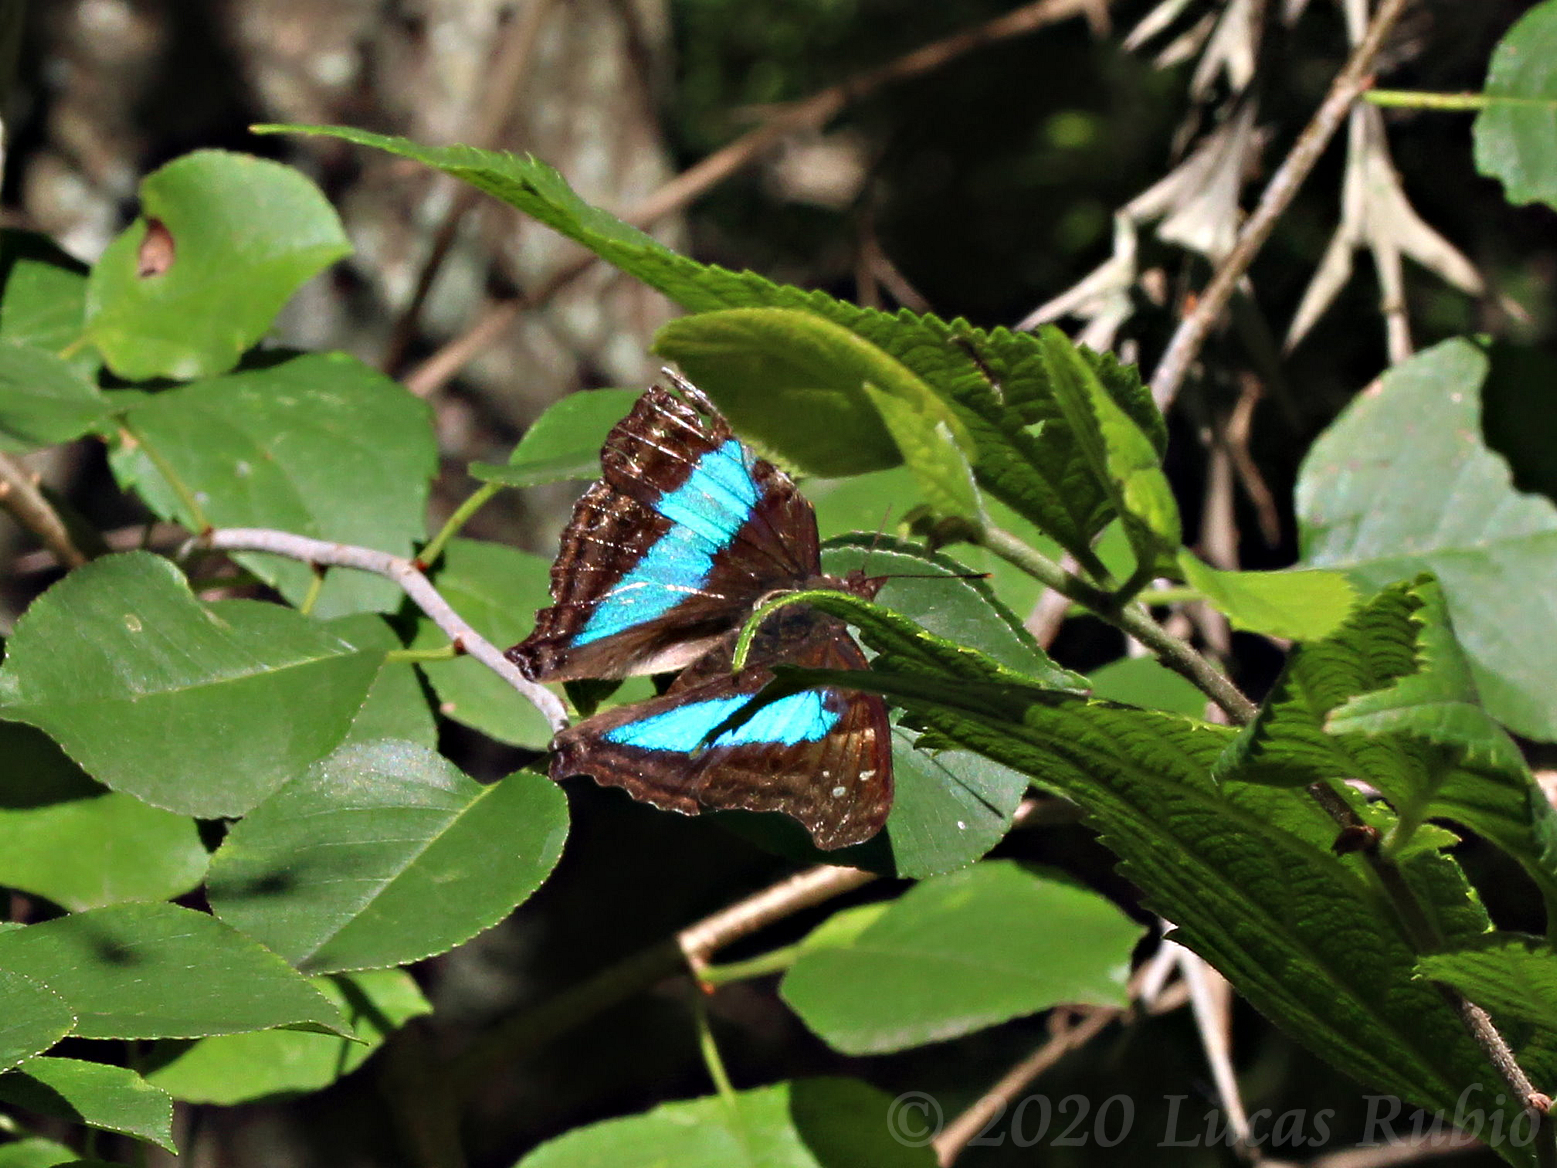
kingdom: Animalia
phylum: Arthropoda
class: Insecta
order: Lepidoptera
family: Nymphalidae
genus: Doxocopa
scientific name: Doxocopa laurentia
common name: Turquoise emperor
